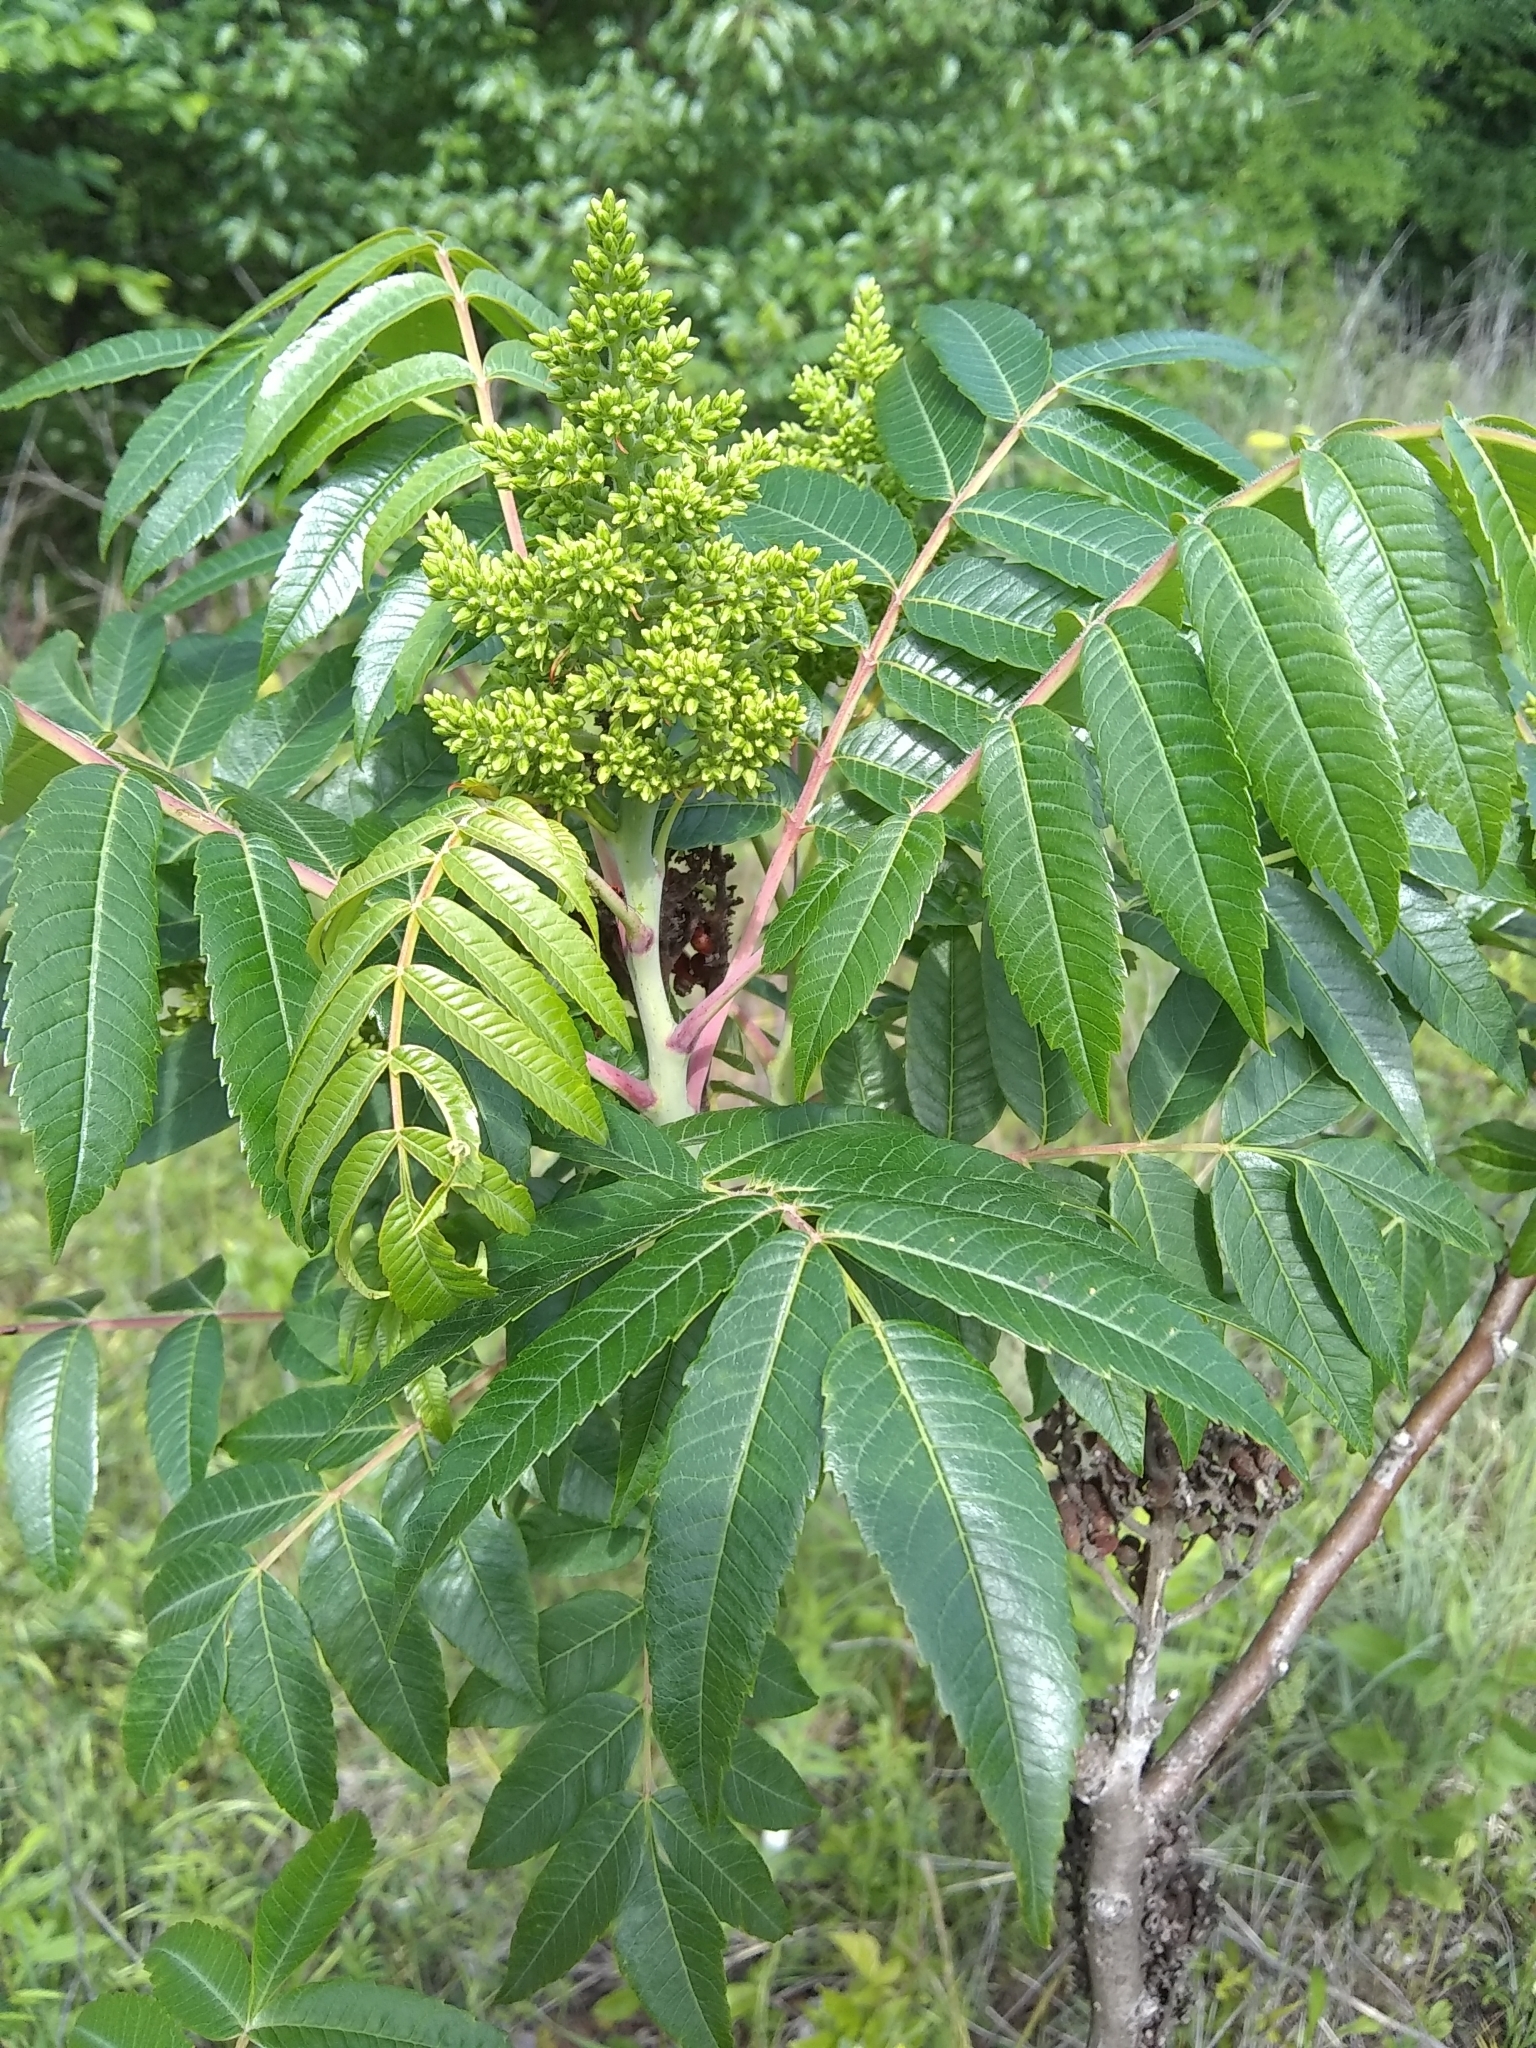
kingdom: Plantae
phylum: Tracheophyta
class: Magnoliopsida
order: Sapindales
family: Anacardiaceae
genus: Rhus
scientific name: Rhus glabra
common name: Scarlet sumac
